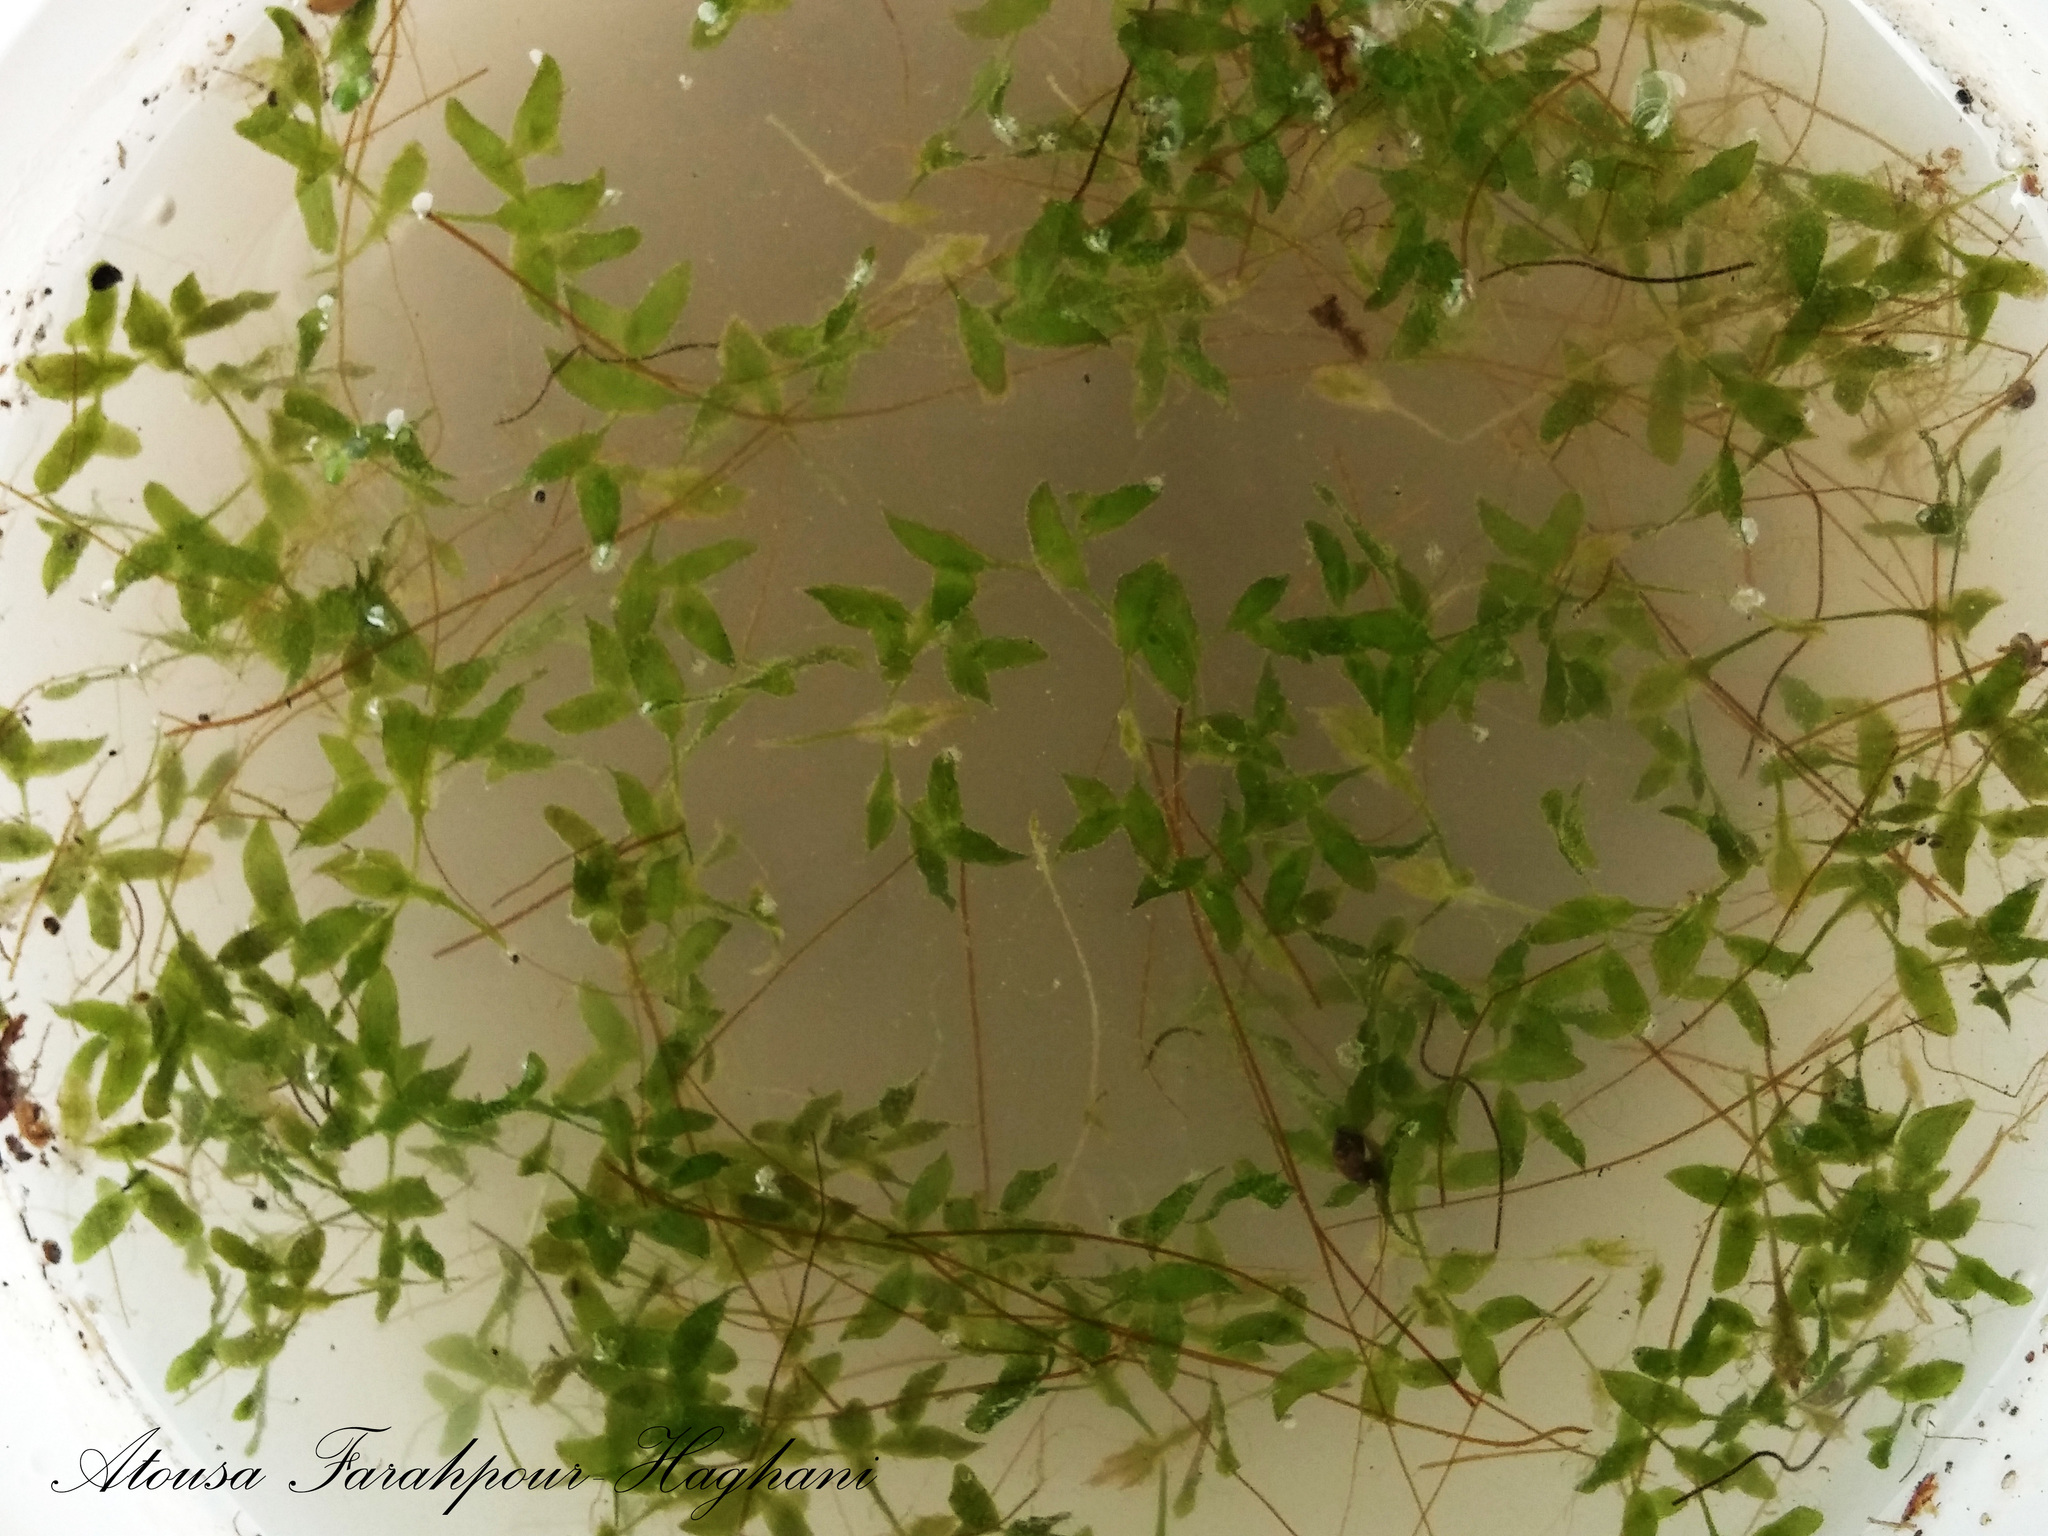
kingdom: Plantae
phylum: Tracheophyta
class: Liliopsida
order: Alismatales
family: Araceae
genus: Lemna
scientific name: Lemna trisulca
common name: Ivy-leaved duckweed
